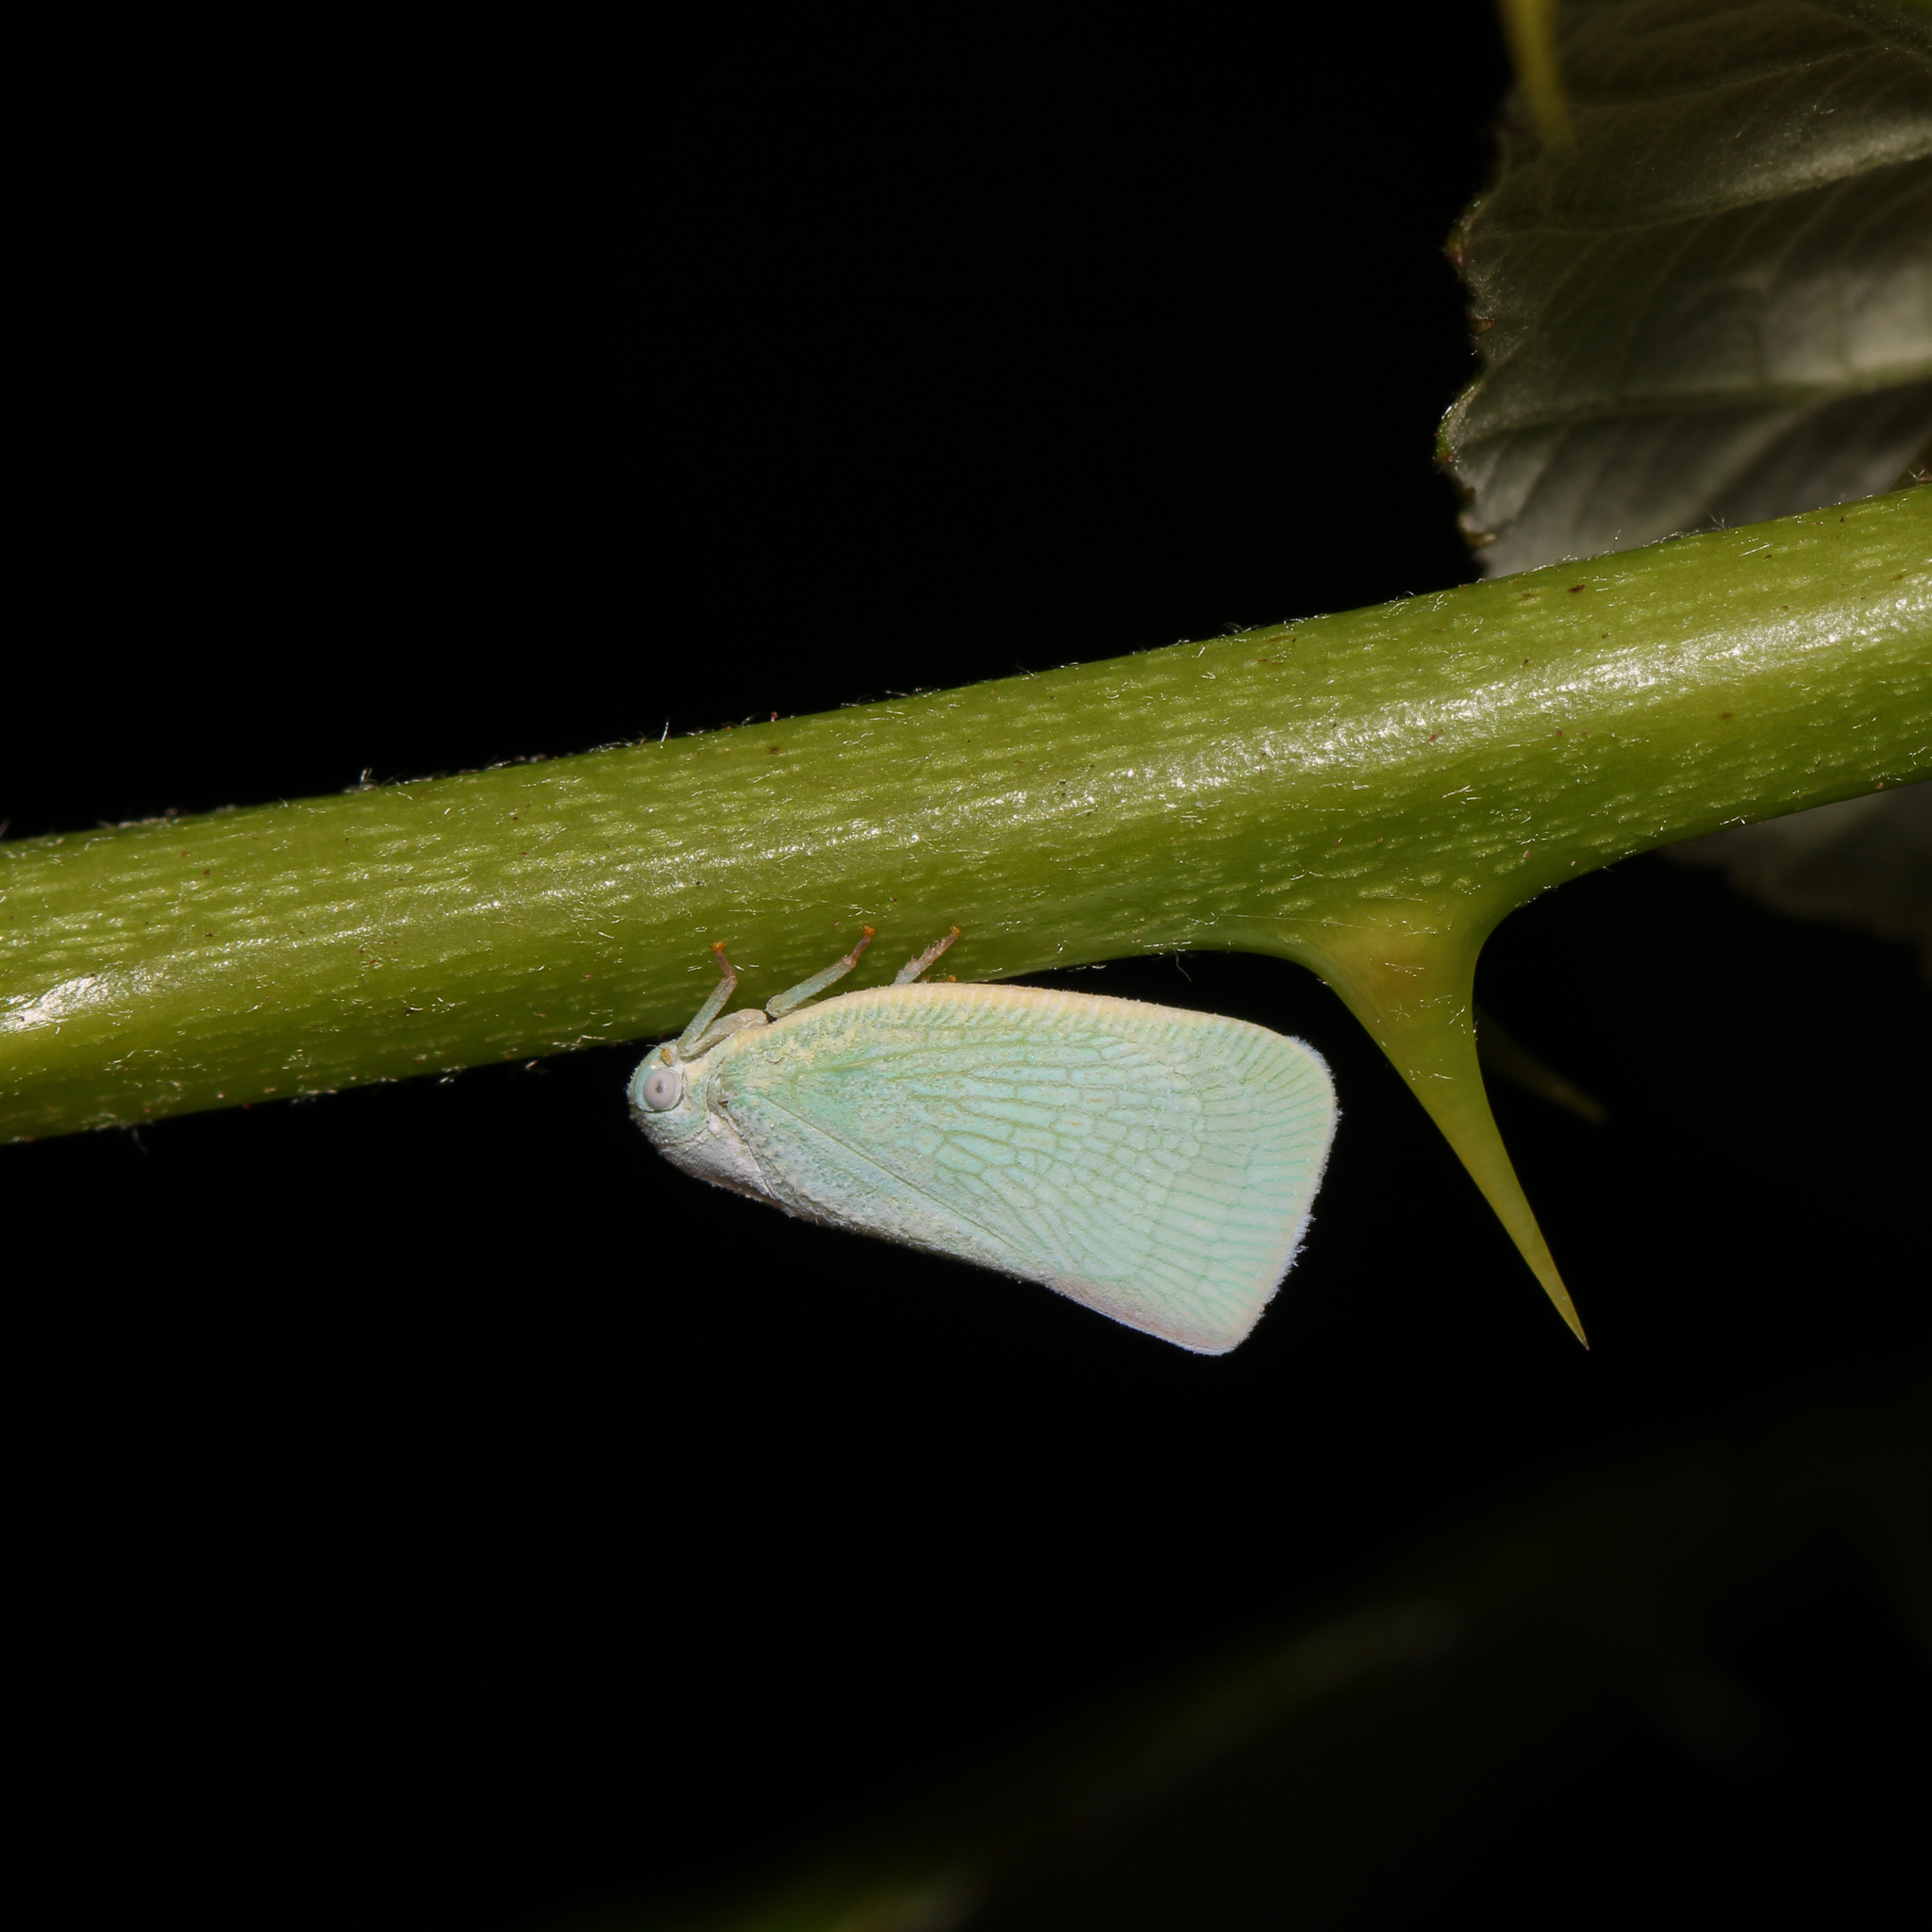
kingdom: Animalia
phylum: Arthropoda
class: Insecta
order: Hemiptera
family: Flatidae
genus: Flatormenis
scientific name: Flatormenis proxima
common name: Northern flatid planthopper
